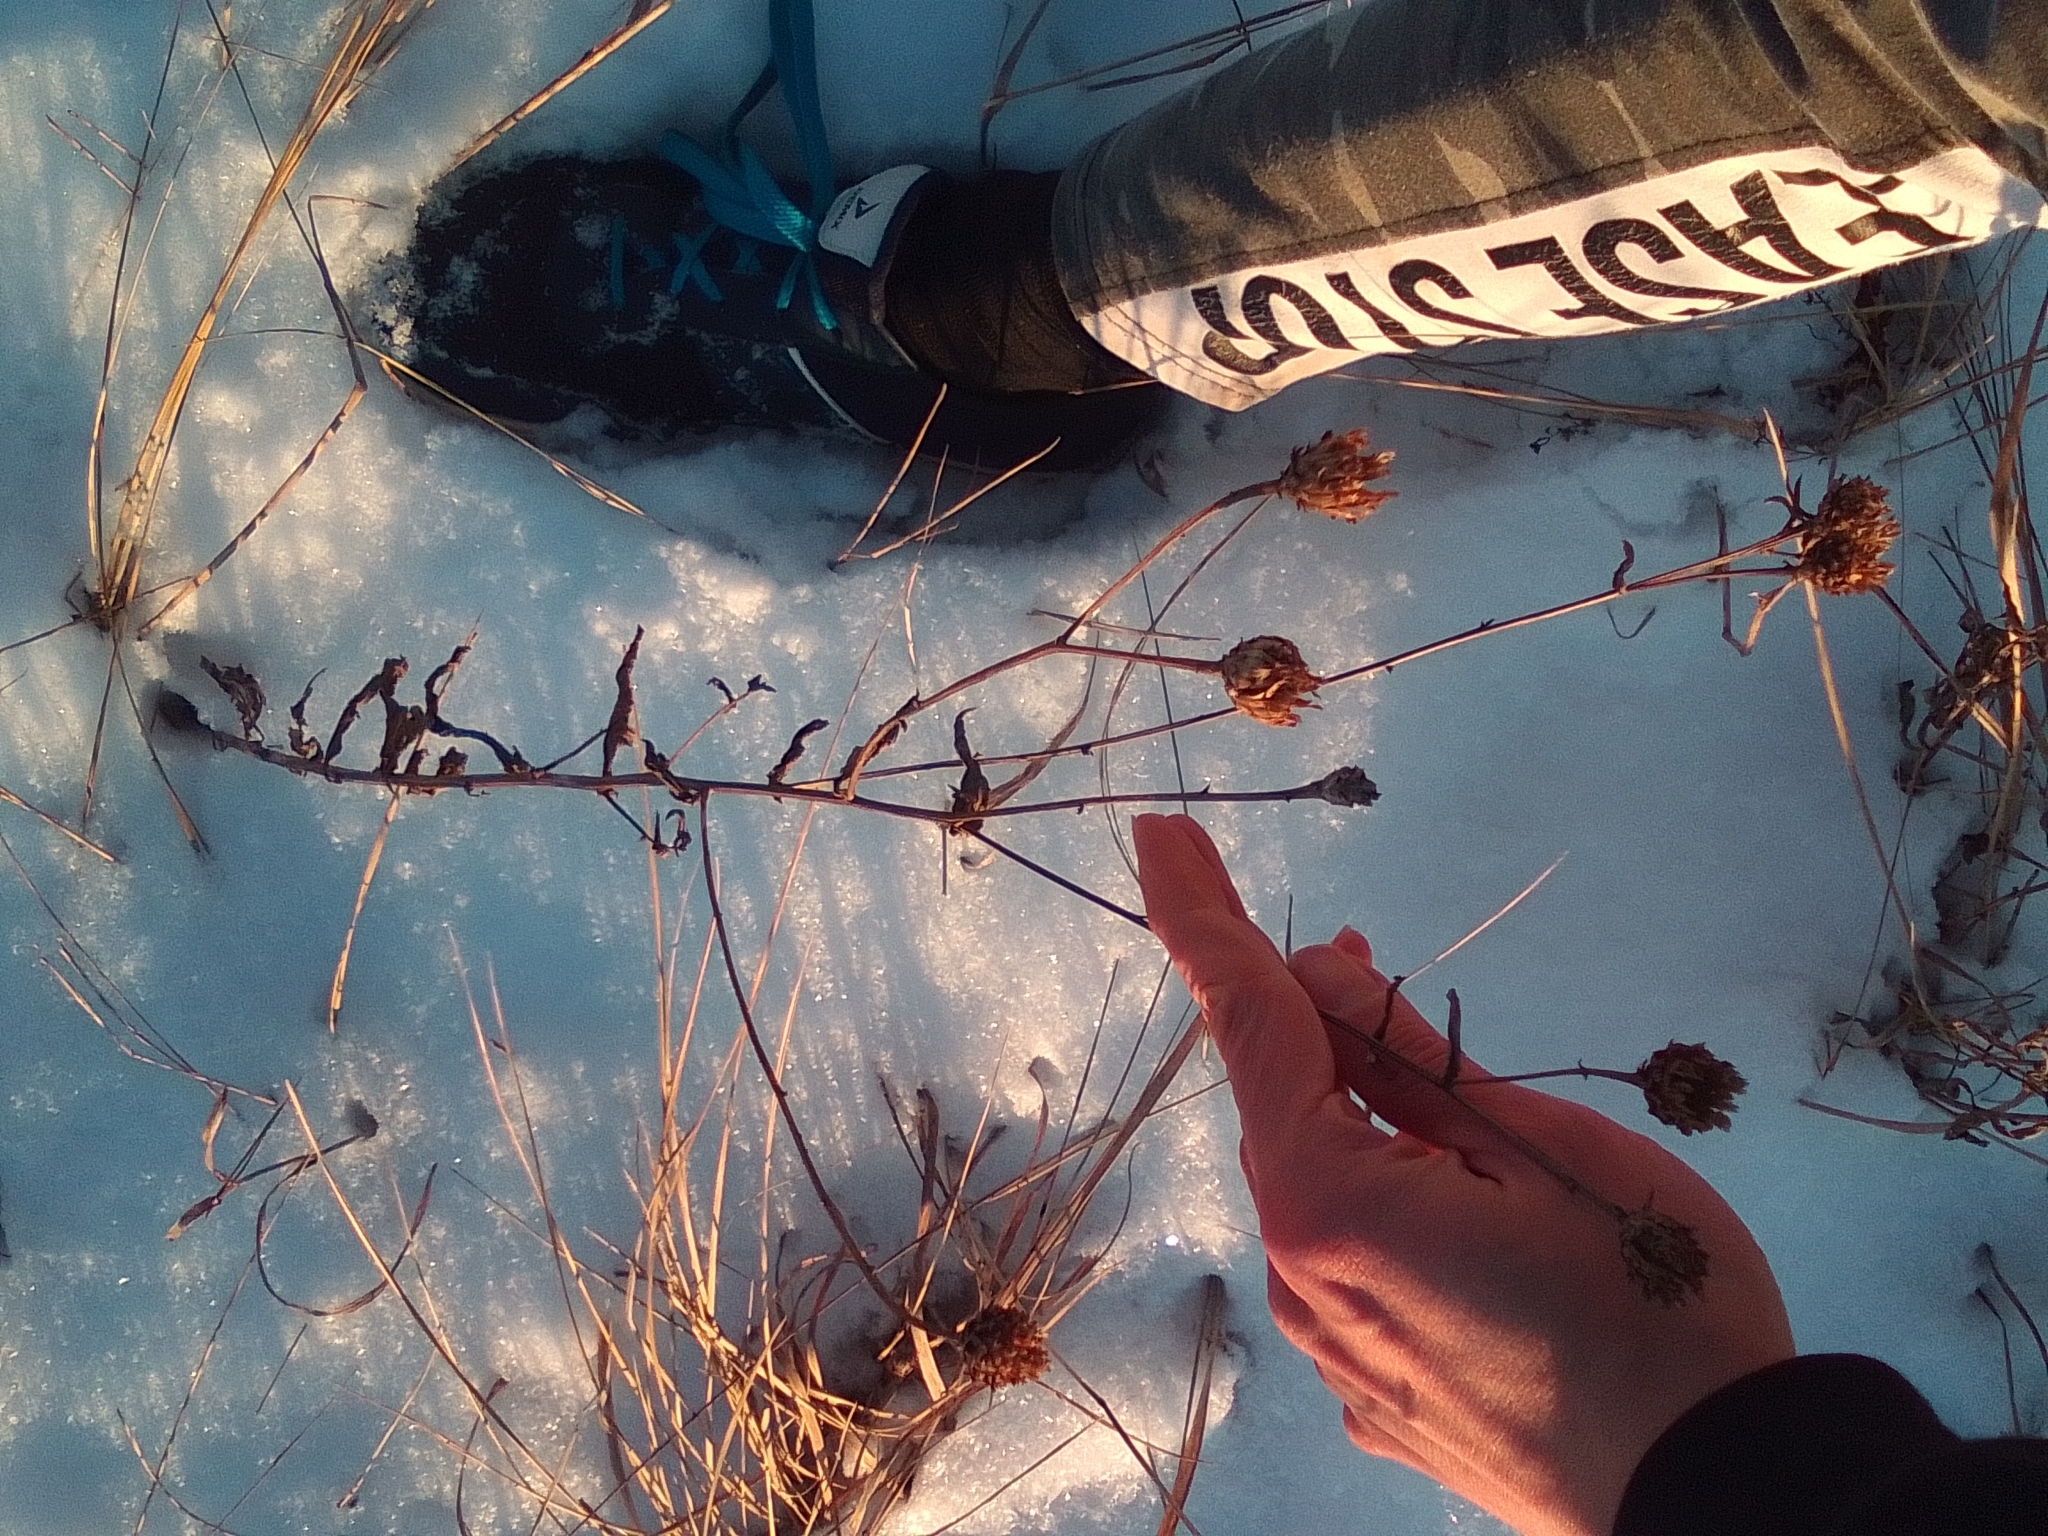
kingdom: Plantae
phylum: Tracheophyta
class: Magnoliopsida
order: Asterales
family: Asteraceae
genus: Centaurea
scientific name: Centaurea jacea
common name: Brown knapweed
